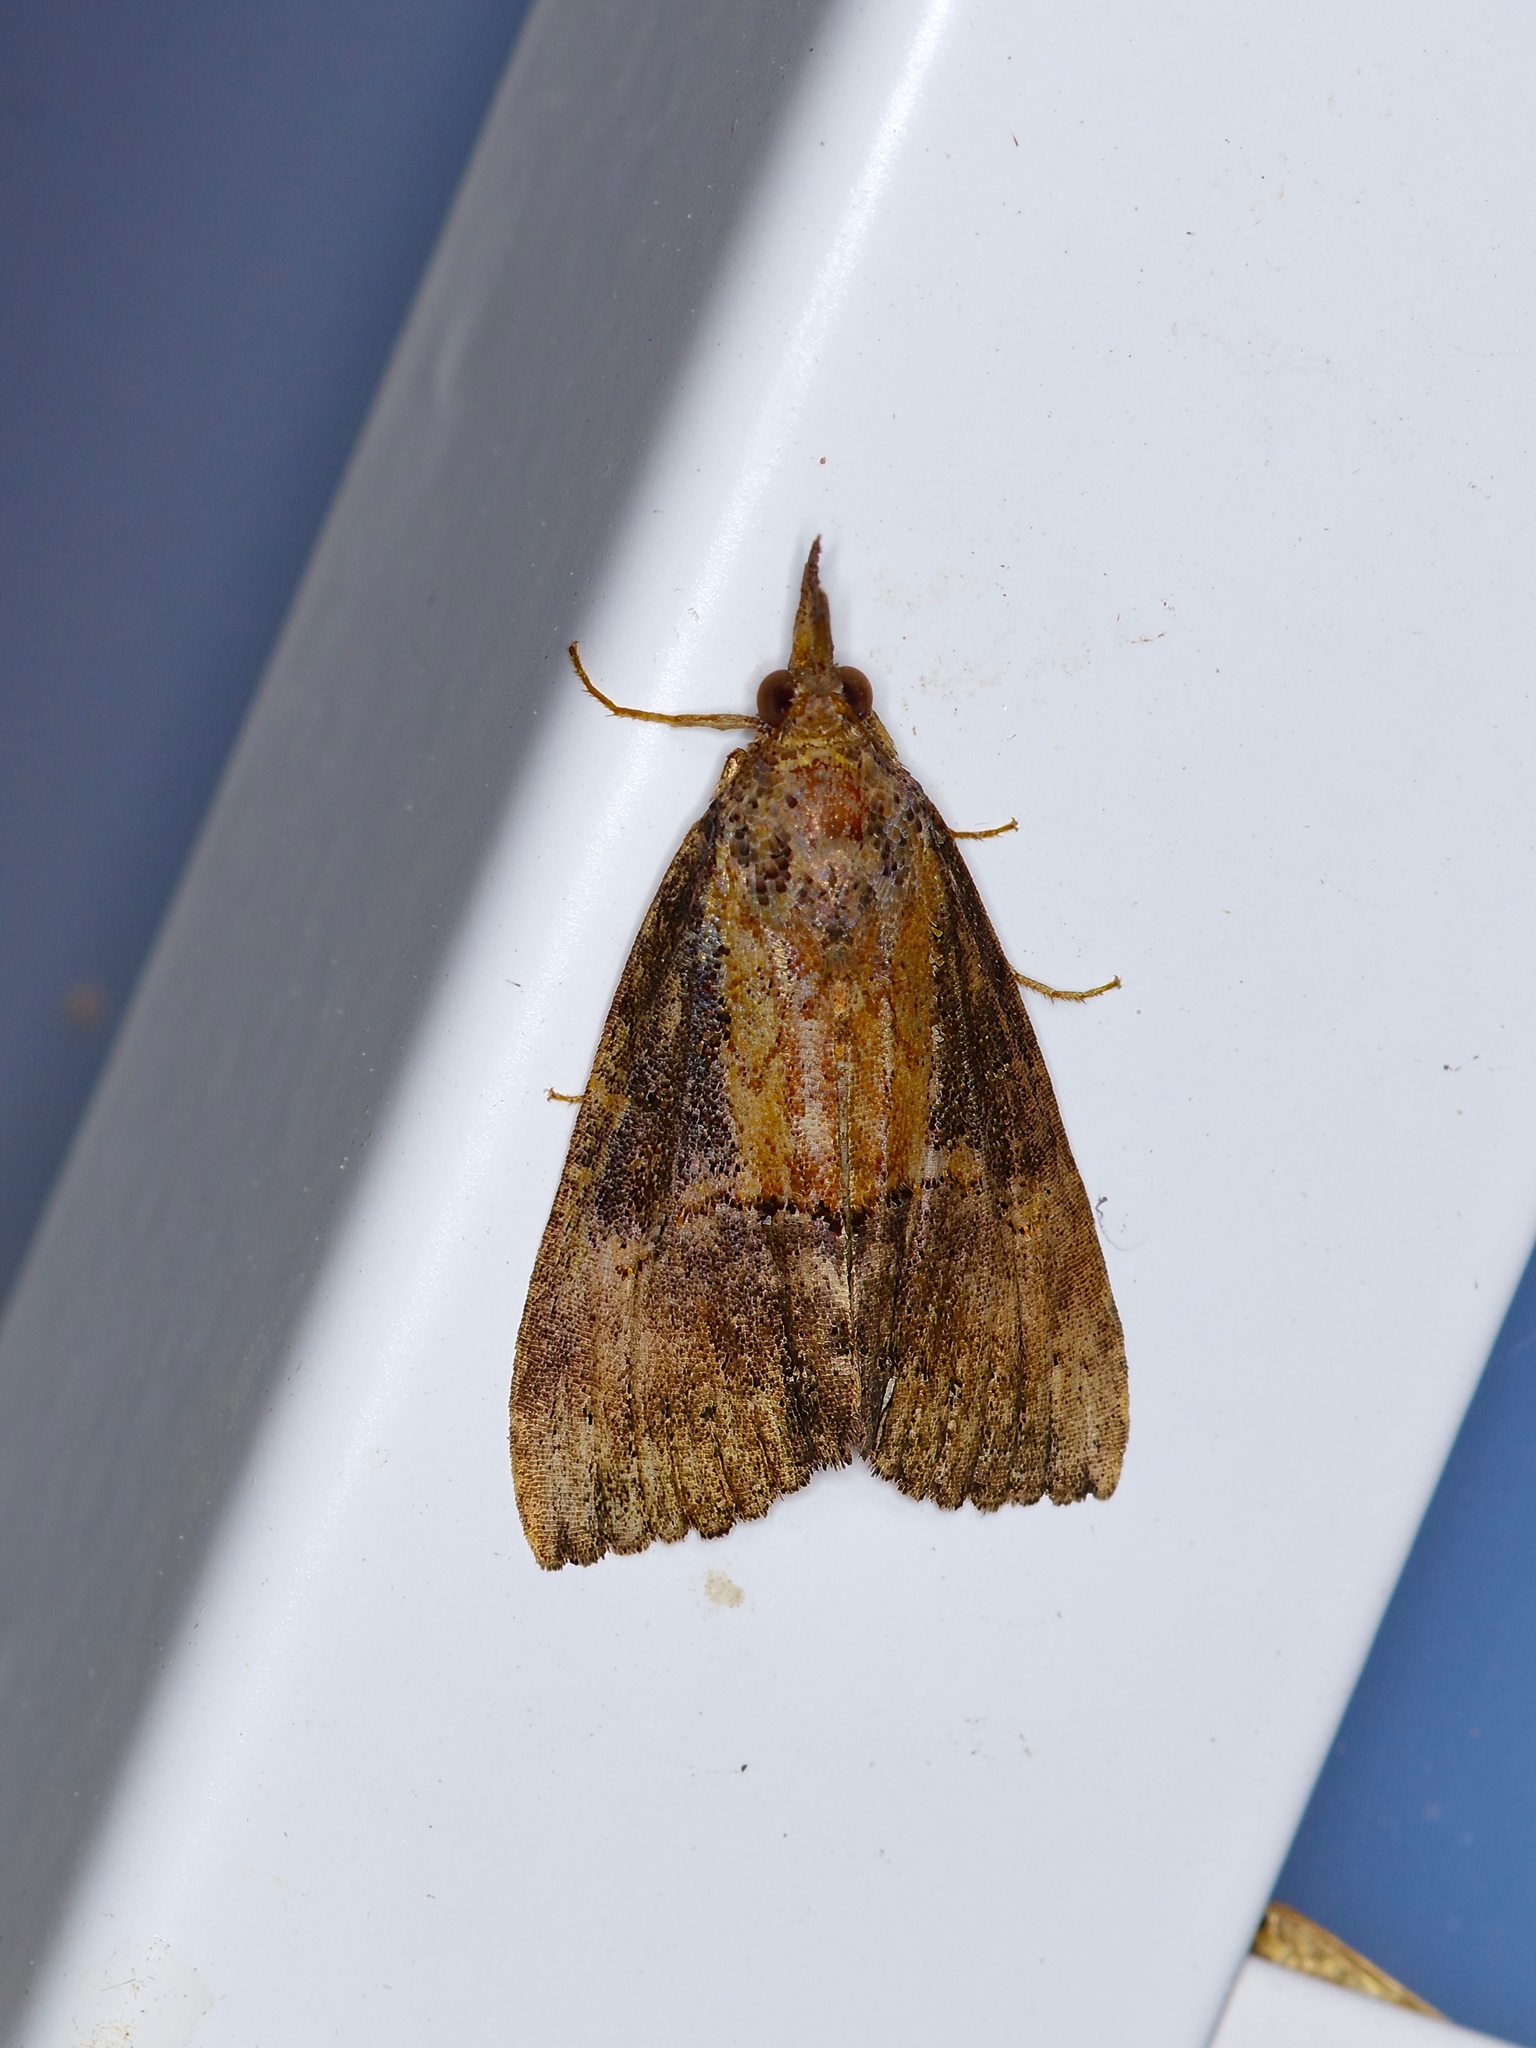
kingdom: Animalia
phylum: Arthropoda
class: Insecta
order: Lepidoptera
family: Erebidae
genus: Hypena
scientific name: Hypena scabra
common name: Green cloverworm
